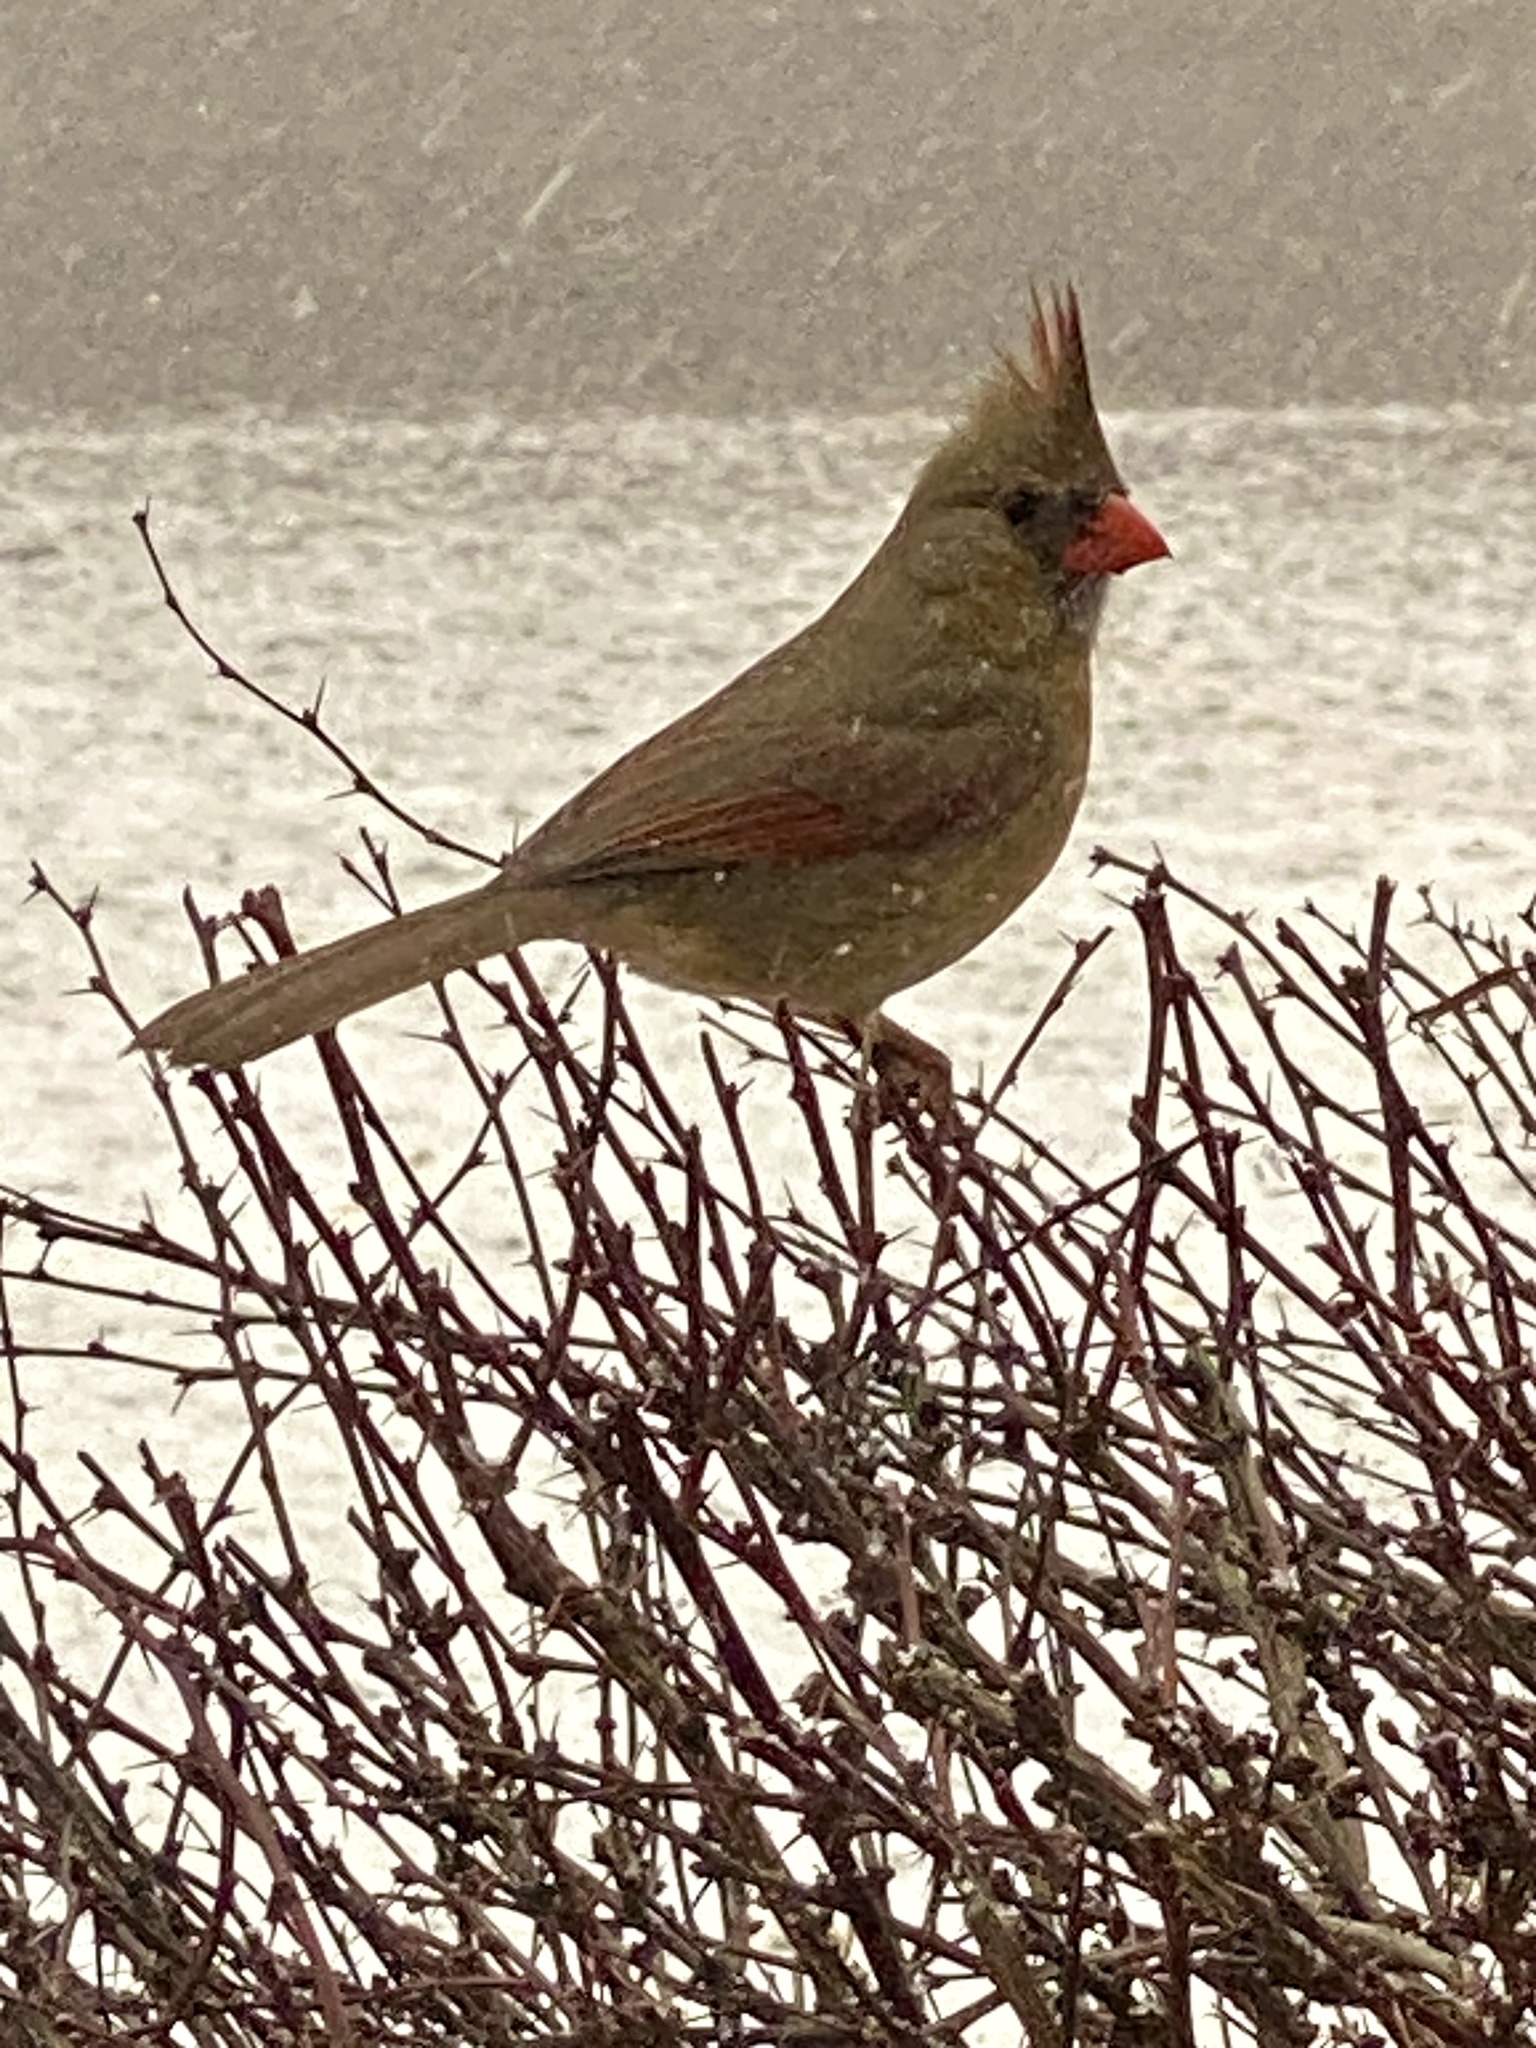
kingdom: Animalia
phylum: Chordata
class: Aves
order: Passeriformes
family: Cardinalidae
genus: Cardinalis
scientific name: Cardinalis cardinalis
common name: Northern cardinal
